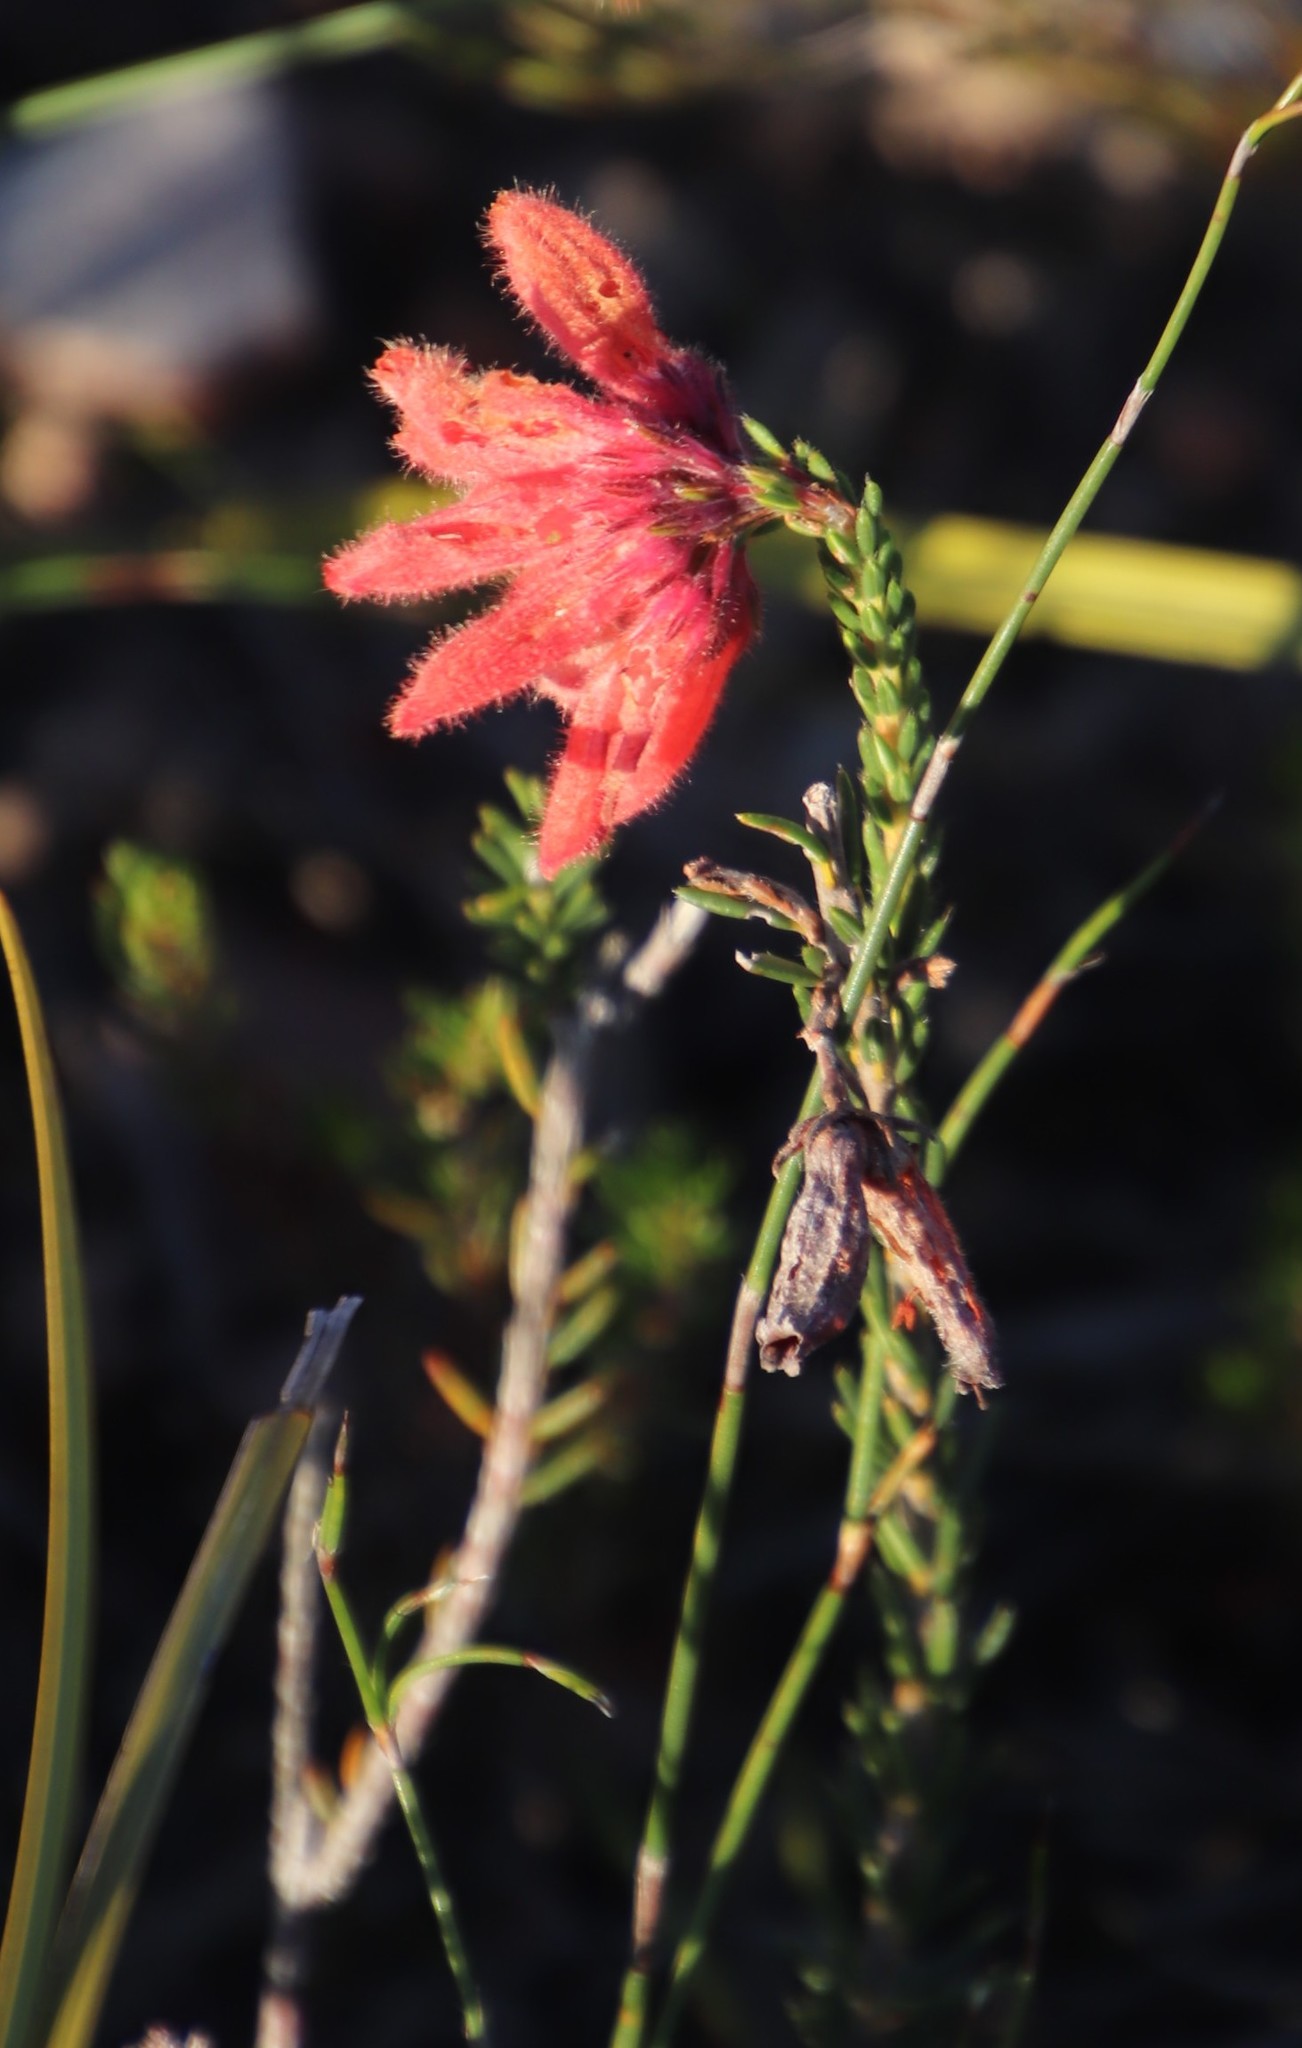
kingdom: Plantae
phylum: Tracheophyta
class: Magnoliopsida
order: Ericales
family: Ericaceae
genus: Erica
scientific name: Erica cerinthoides
